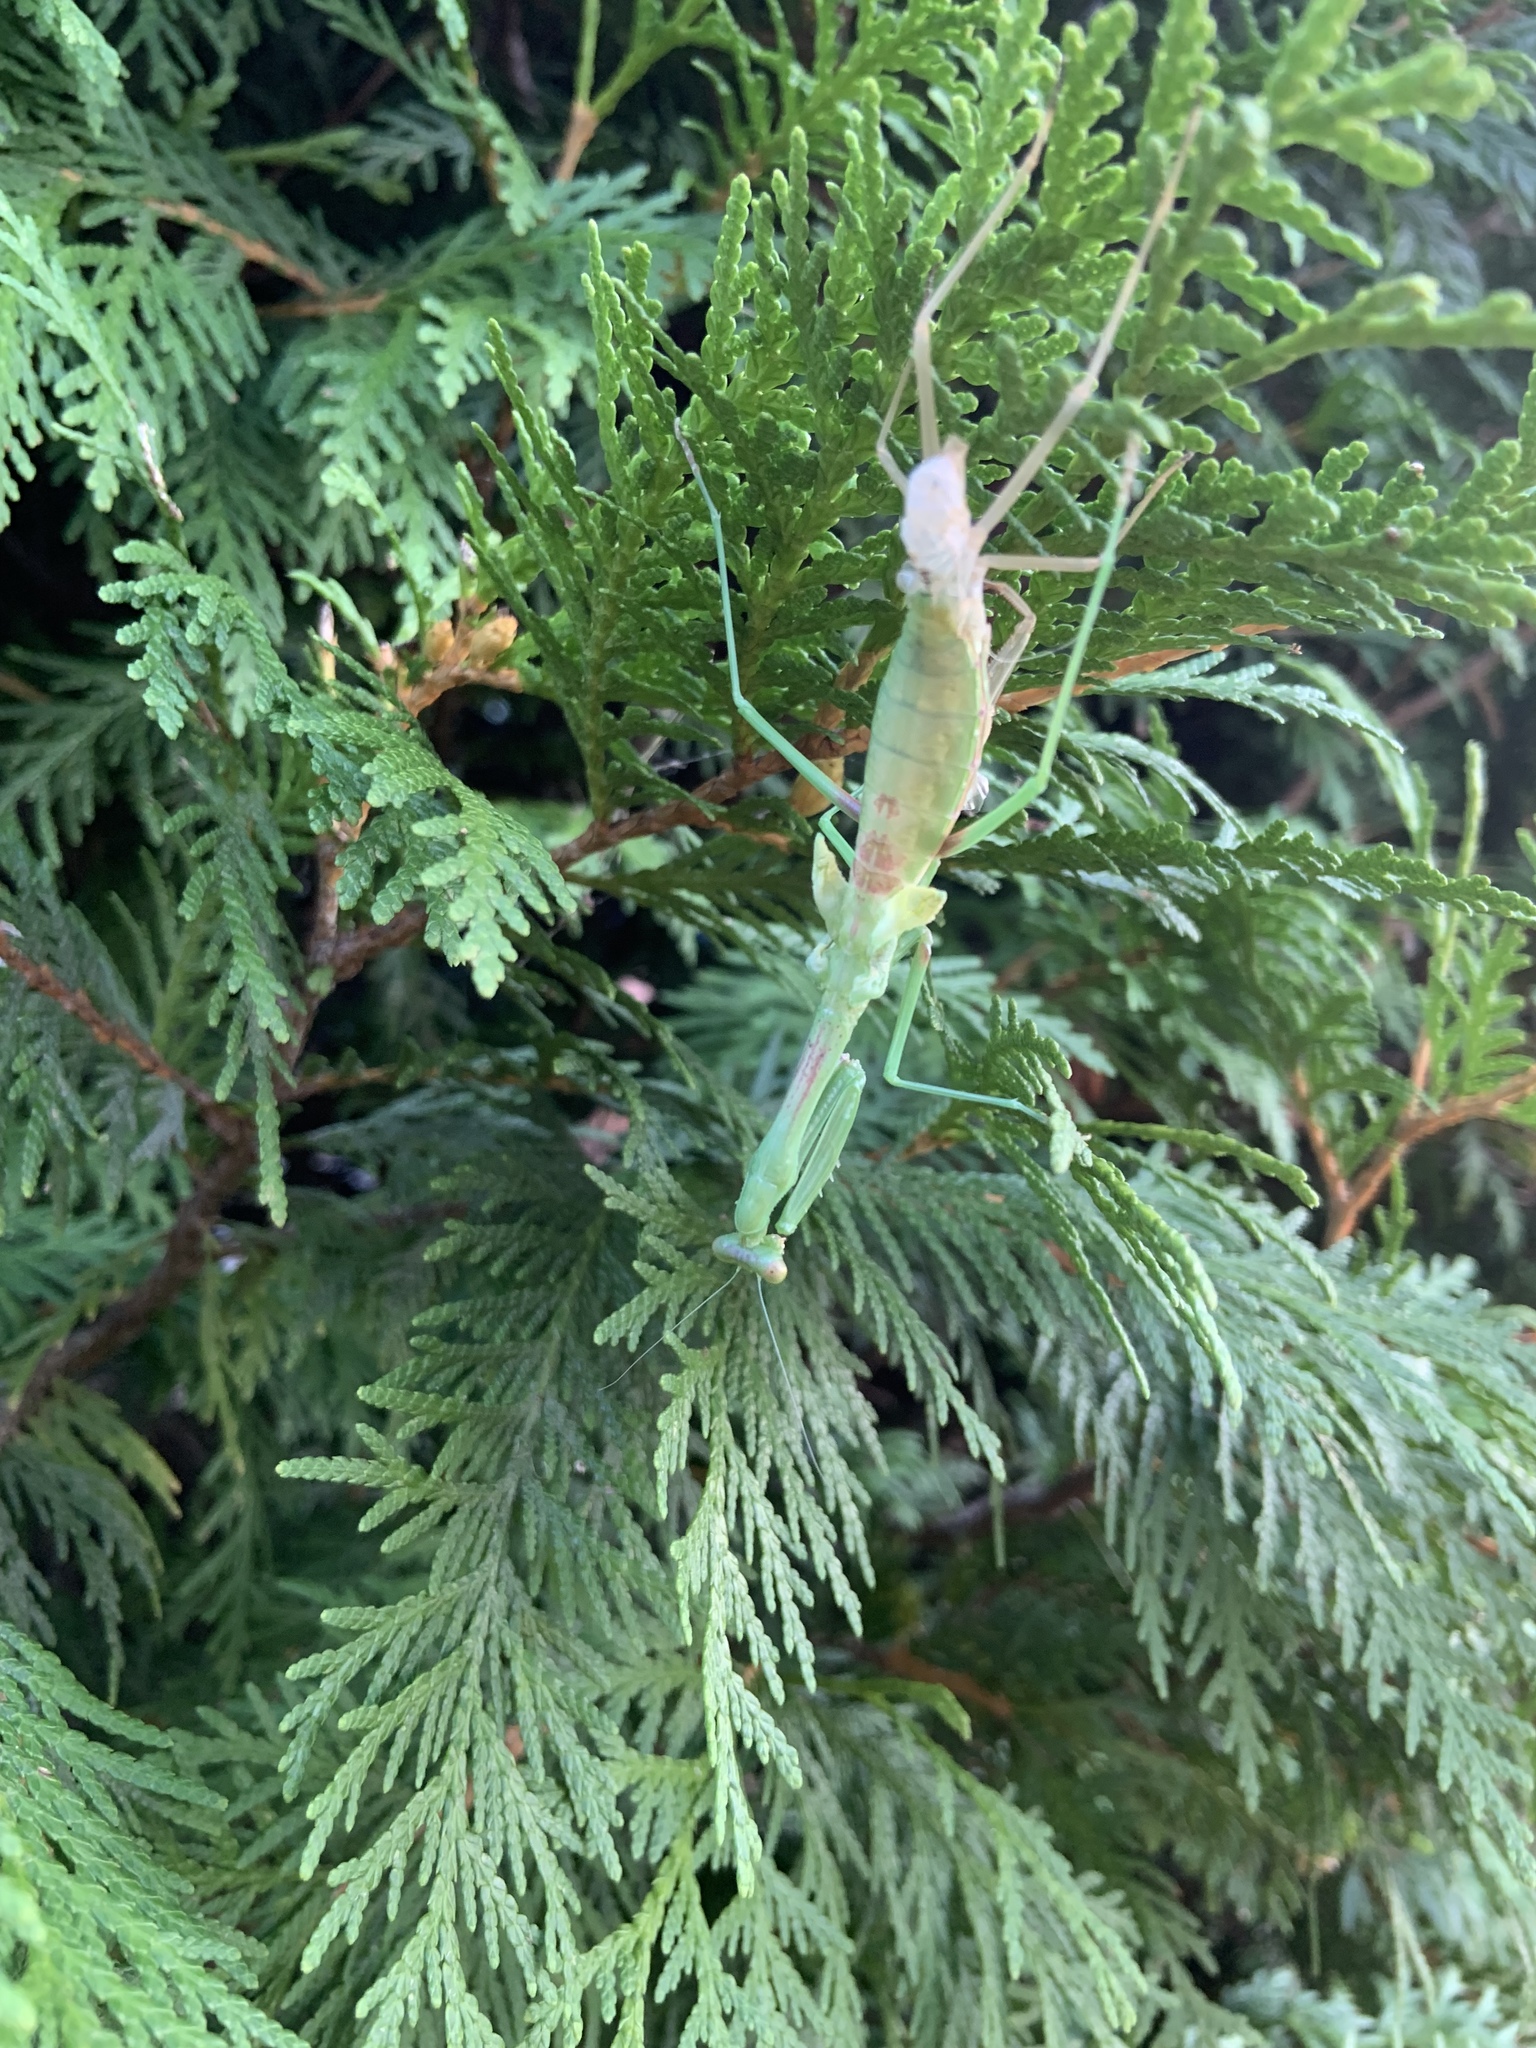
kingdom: Animalia
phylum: Arthropoda
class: Insecta
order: Mantodea
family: Mantidae
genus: Stagmomantis
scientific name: Stagmomantis carolina
